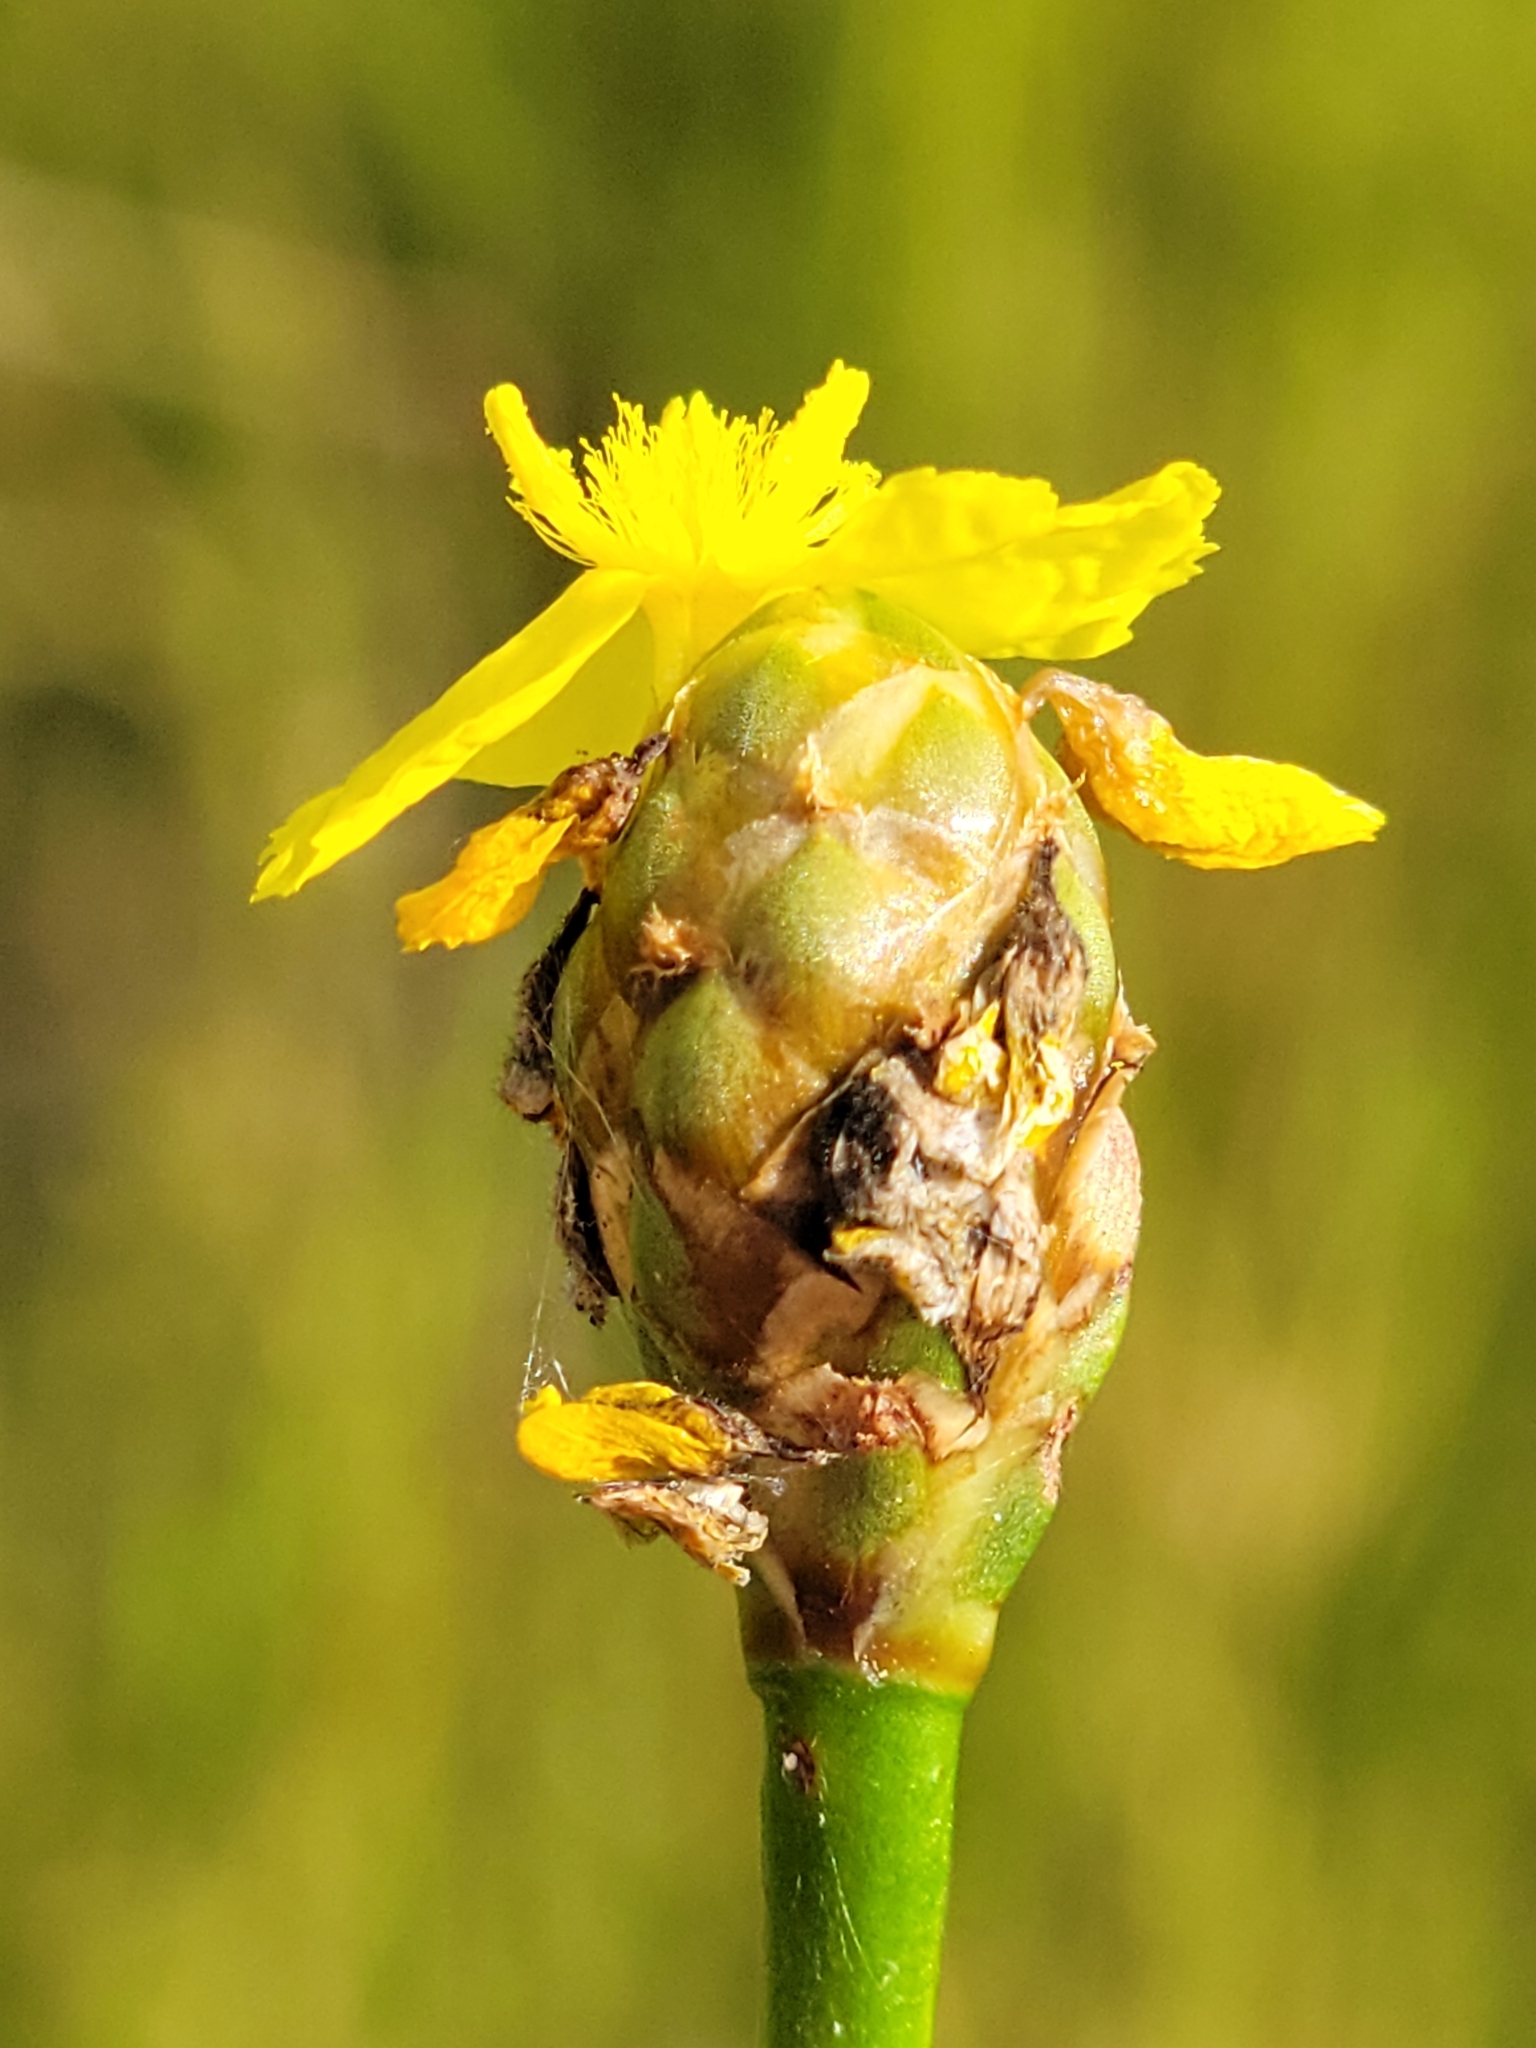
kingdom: Plantae
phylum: Tracheophyta
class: Liliopsida
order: Poales
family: Xyridaceae
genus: Xyris
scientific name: Xyris smalliana
